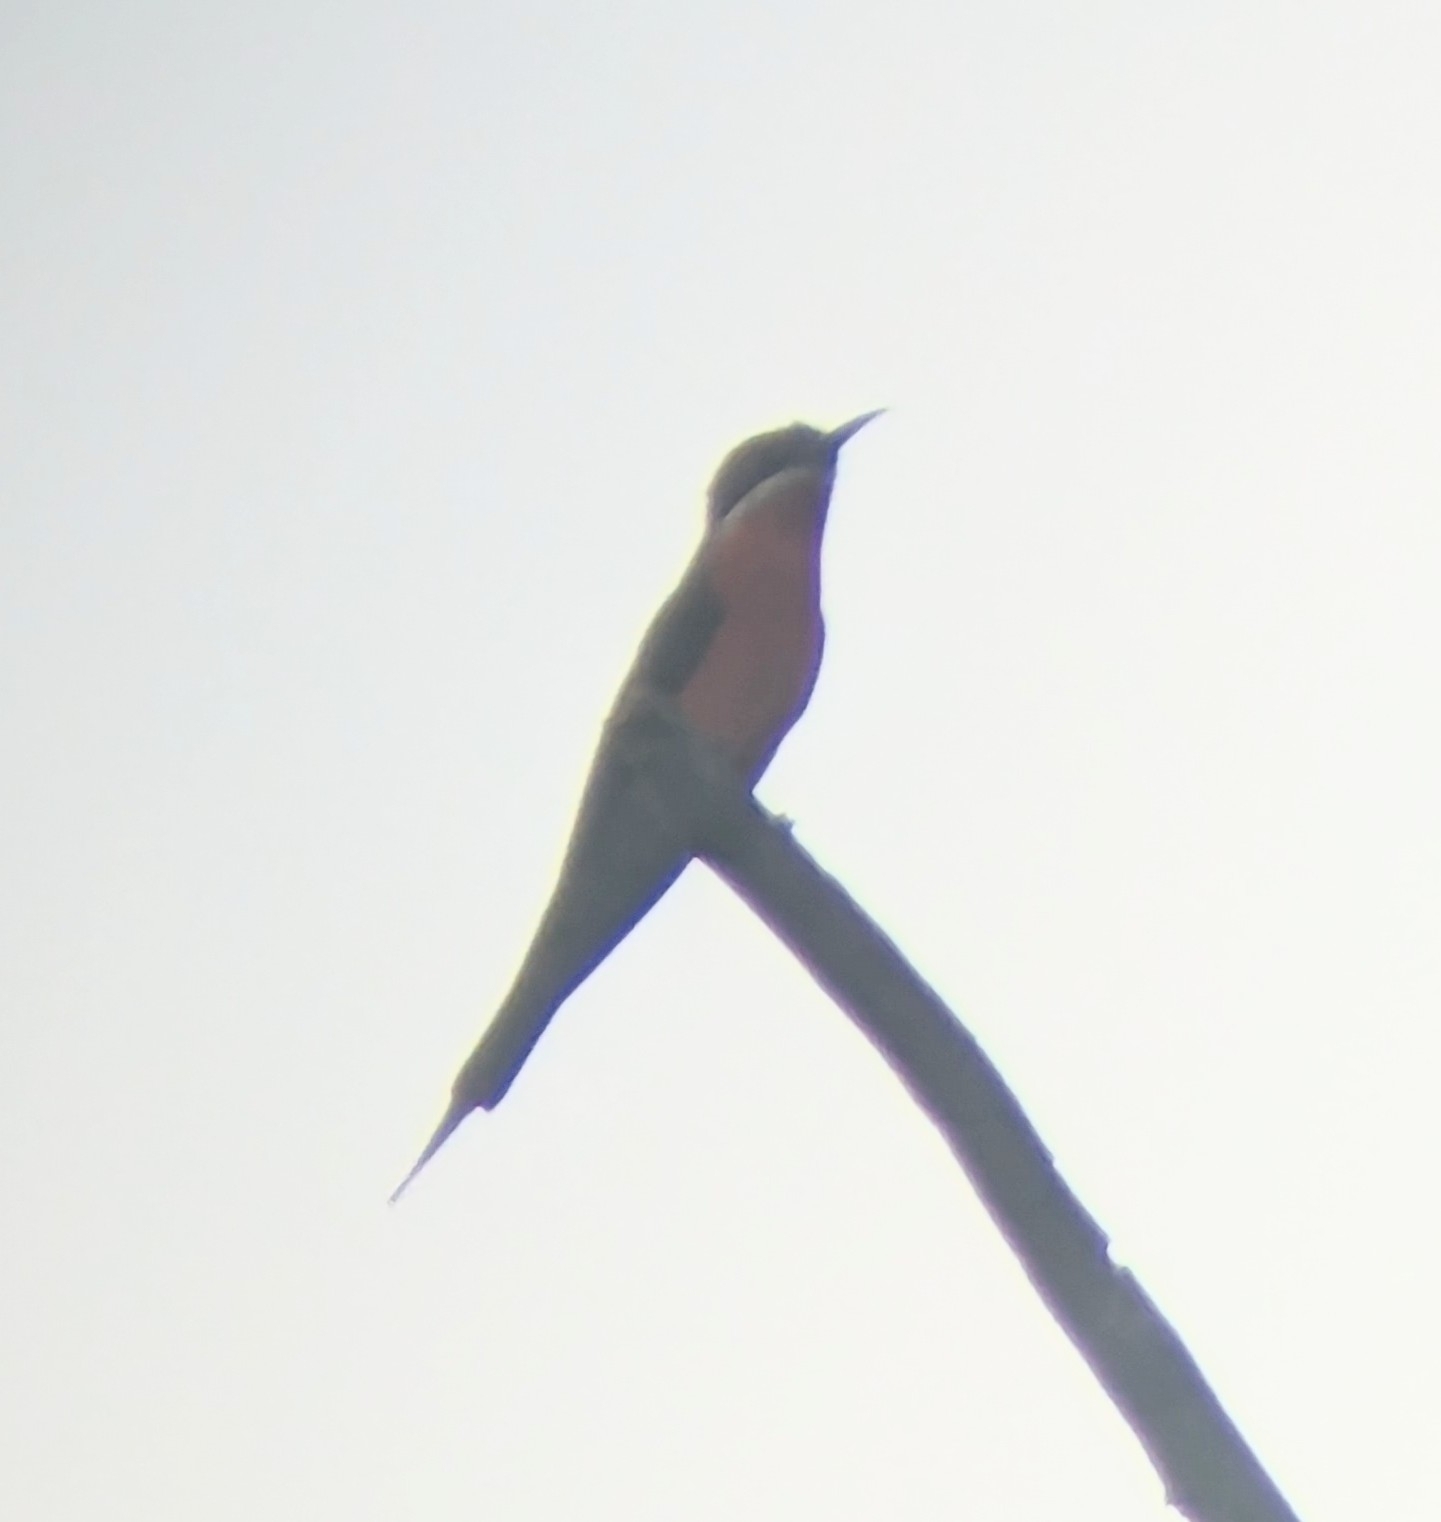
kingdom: Animalia
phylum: Chordata
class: Aves
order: Coraciiformes
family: Meropidae
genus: Merops
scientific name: Merops malimbicus
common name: Rosy bee-eater
